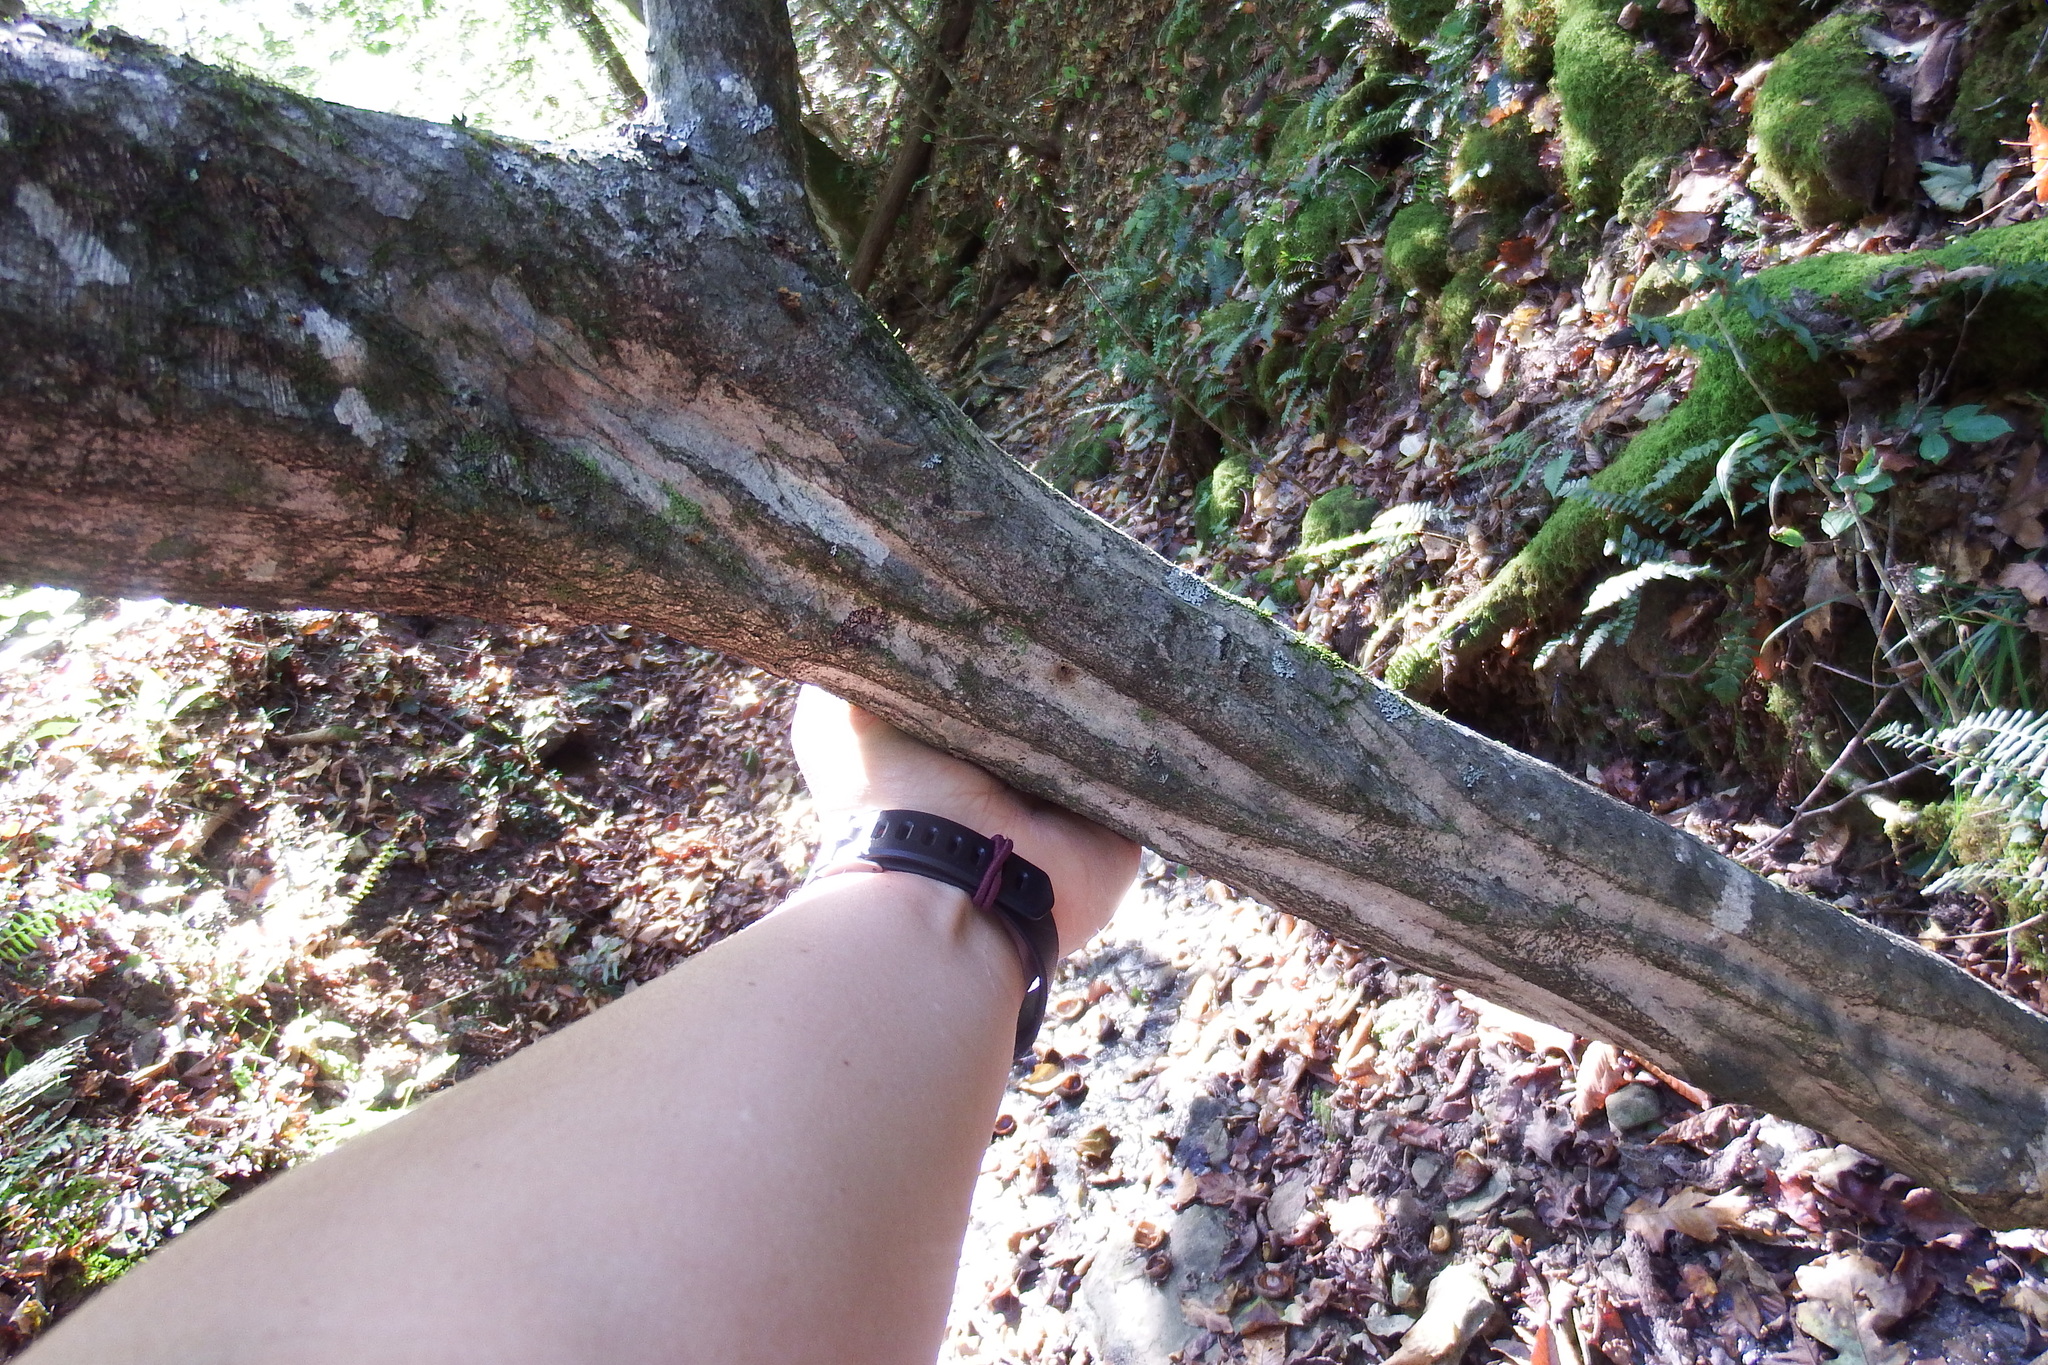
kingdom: Plantae
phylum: Tracheophyta
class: Magnoliopsida
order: Fagales
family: Betulaceae
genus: Carpinus
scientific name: Carpinus caroliniana
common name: American hornbeam
